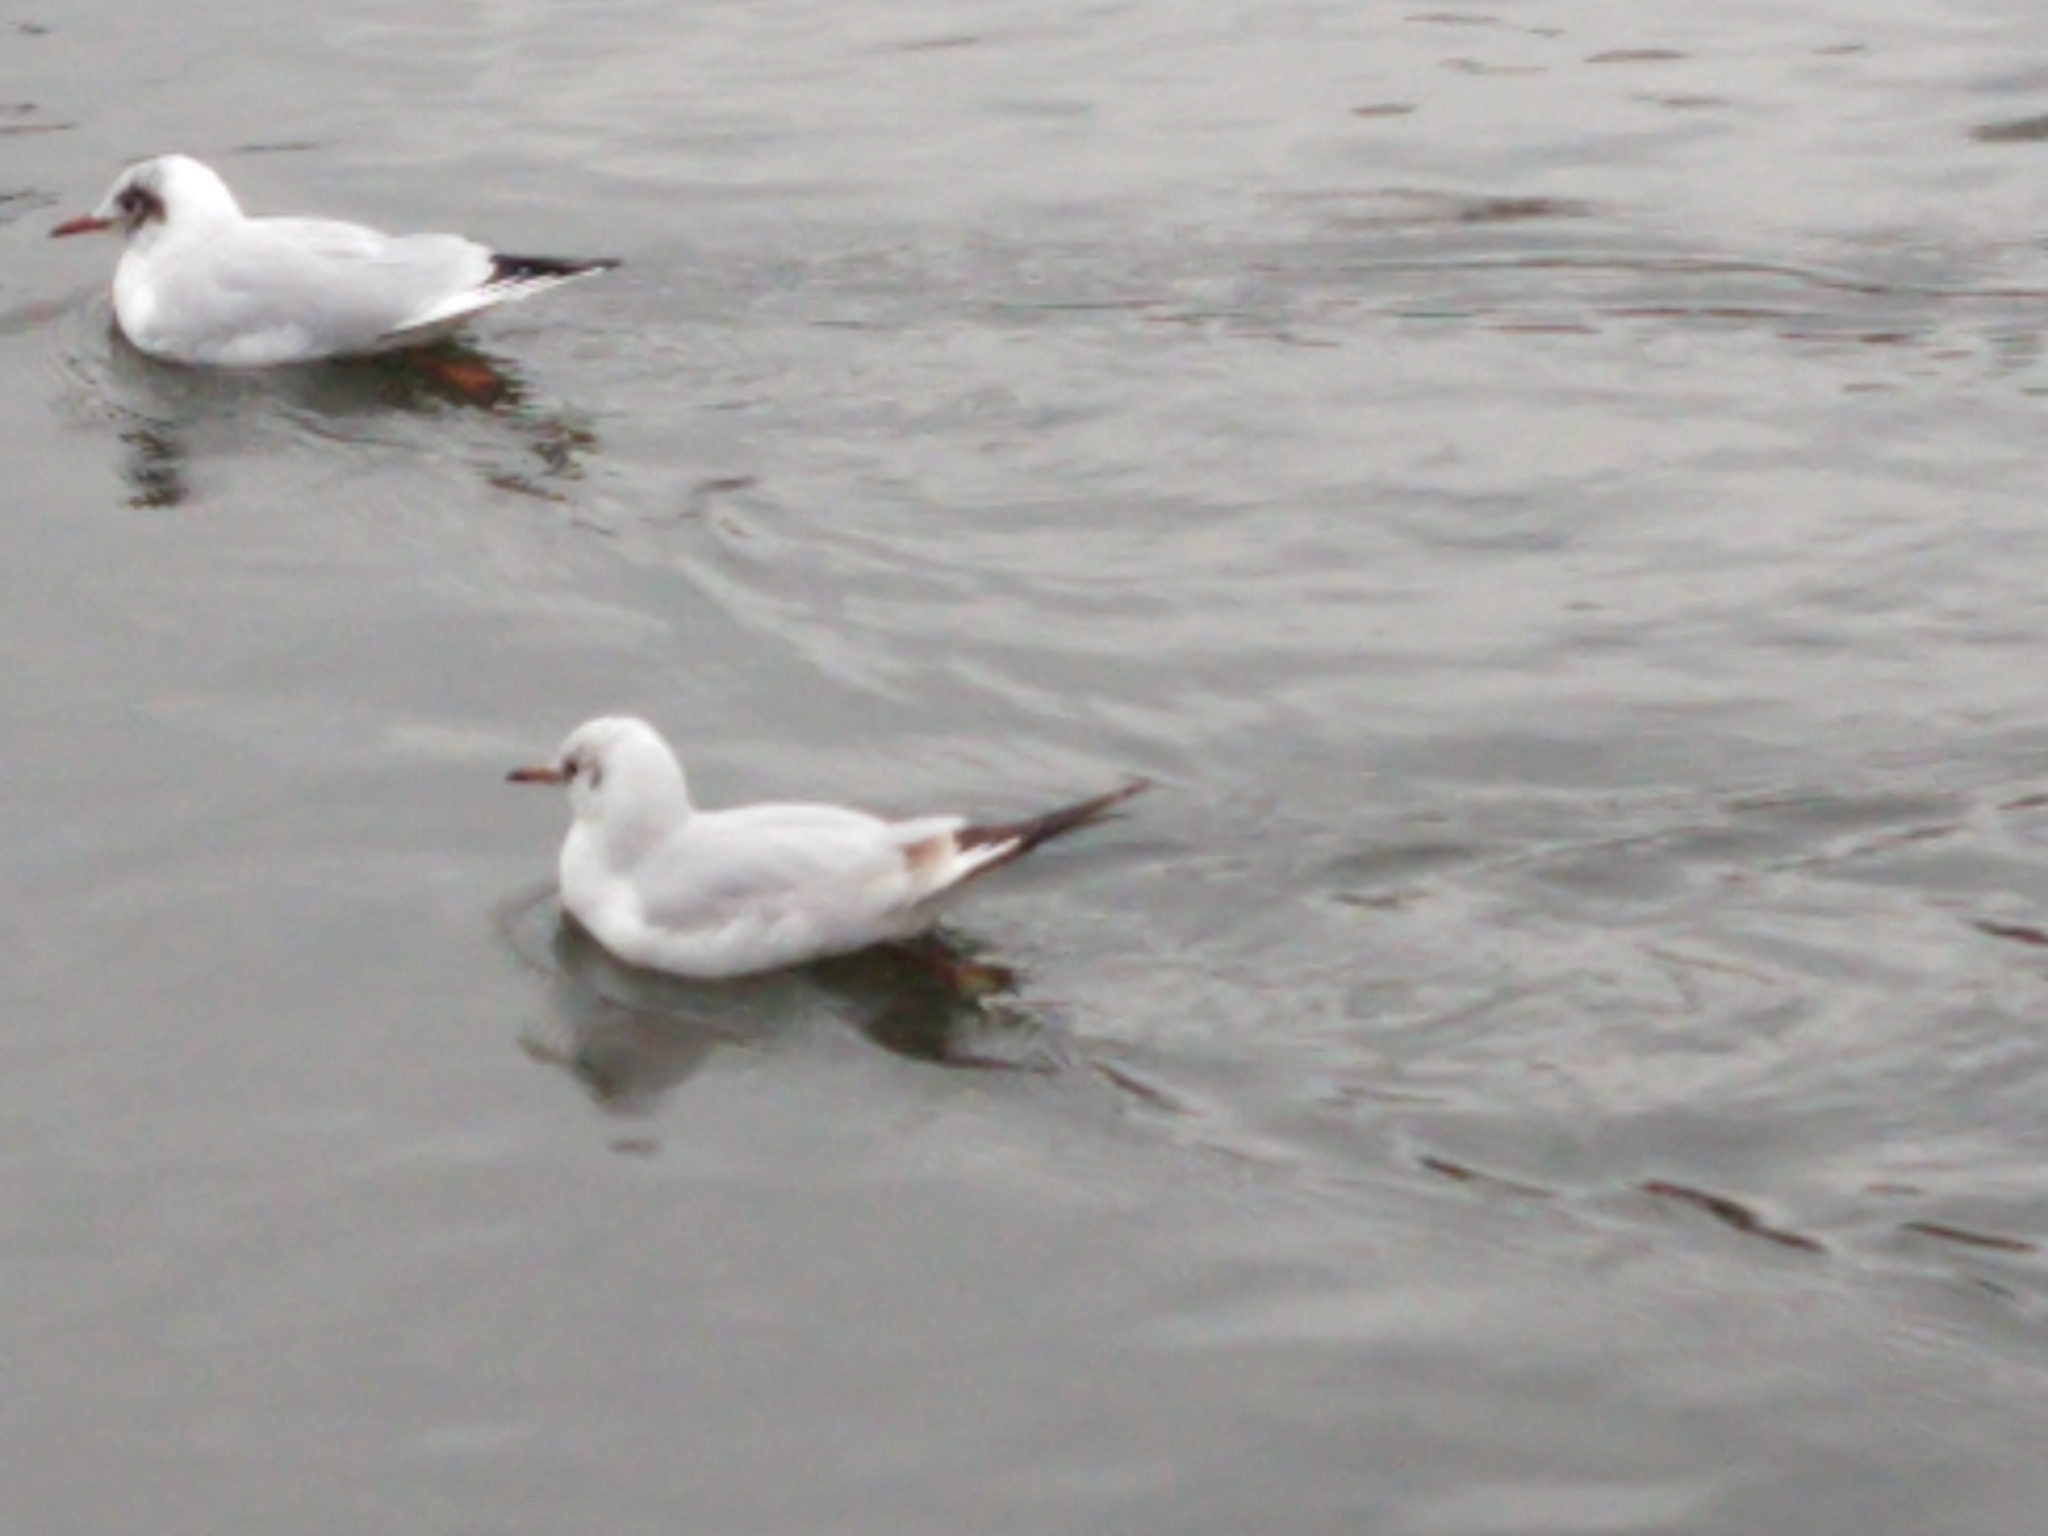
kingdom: Animalia
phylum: Chordata
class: Aves
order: Charadriiformes
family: Laridae
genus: Chroicocephalus
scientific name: Chroicocephalus ridibundus
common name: Black-headed gull
